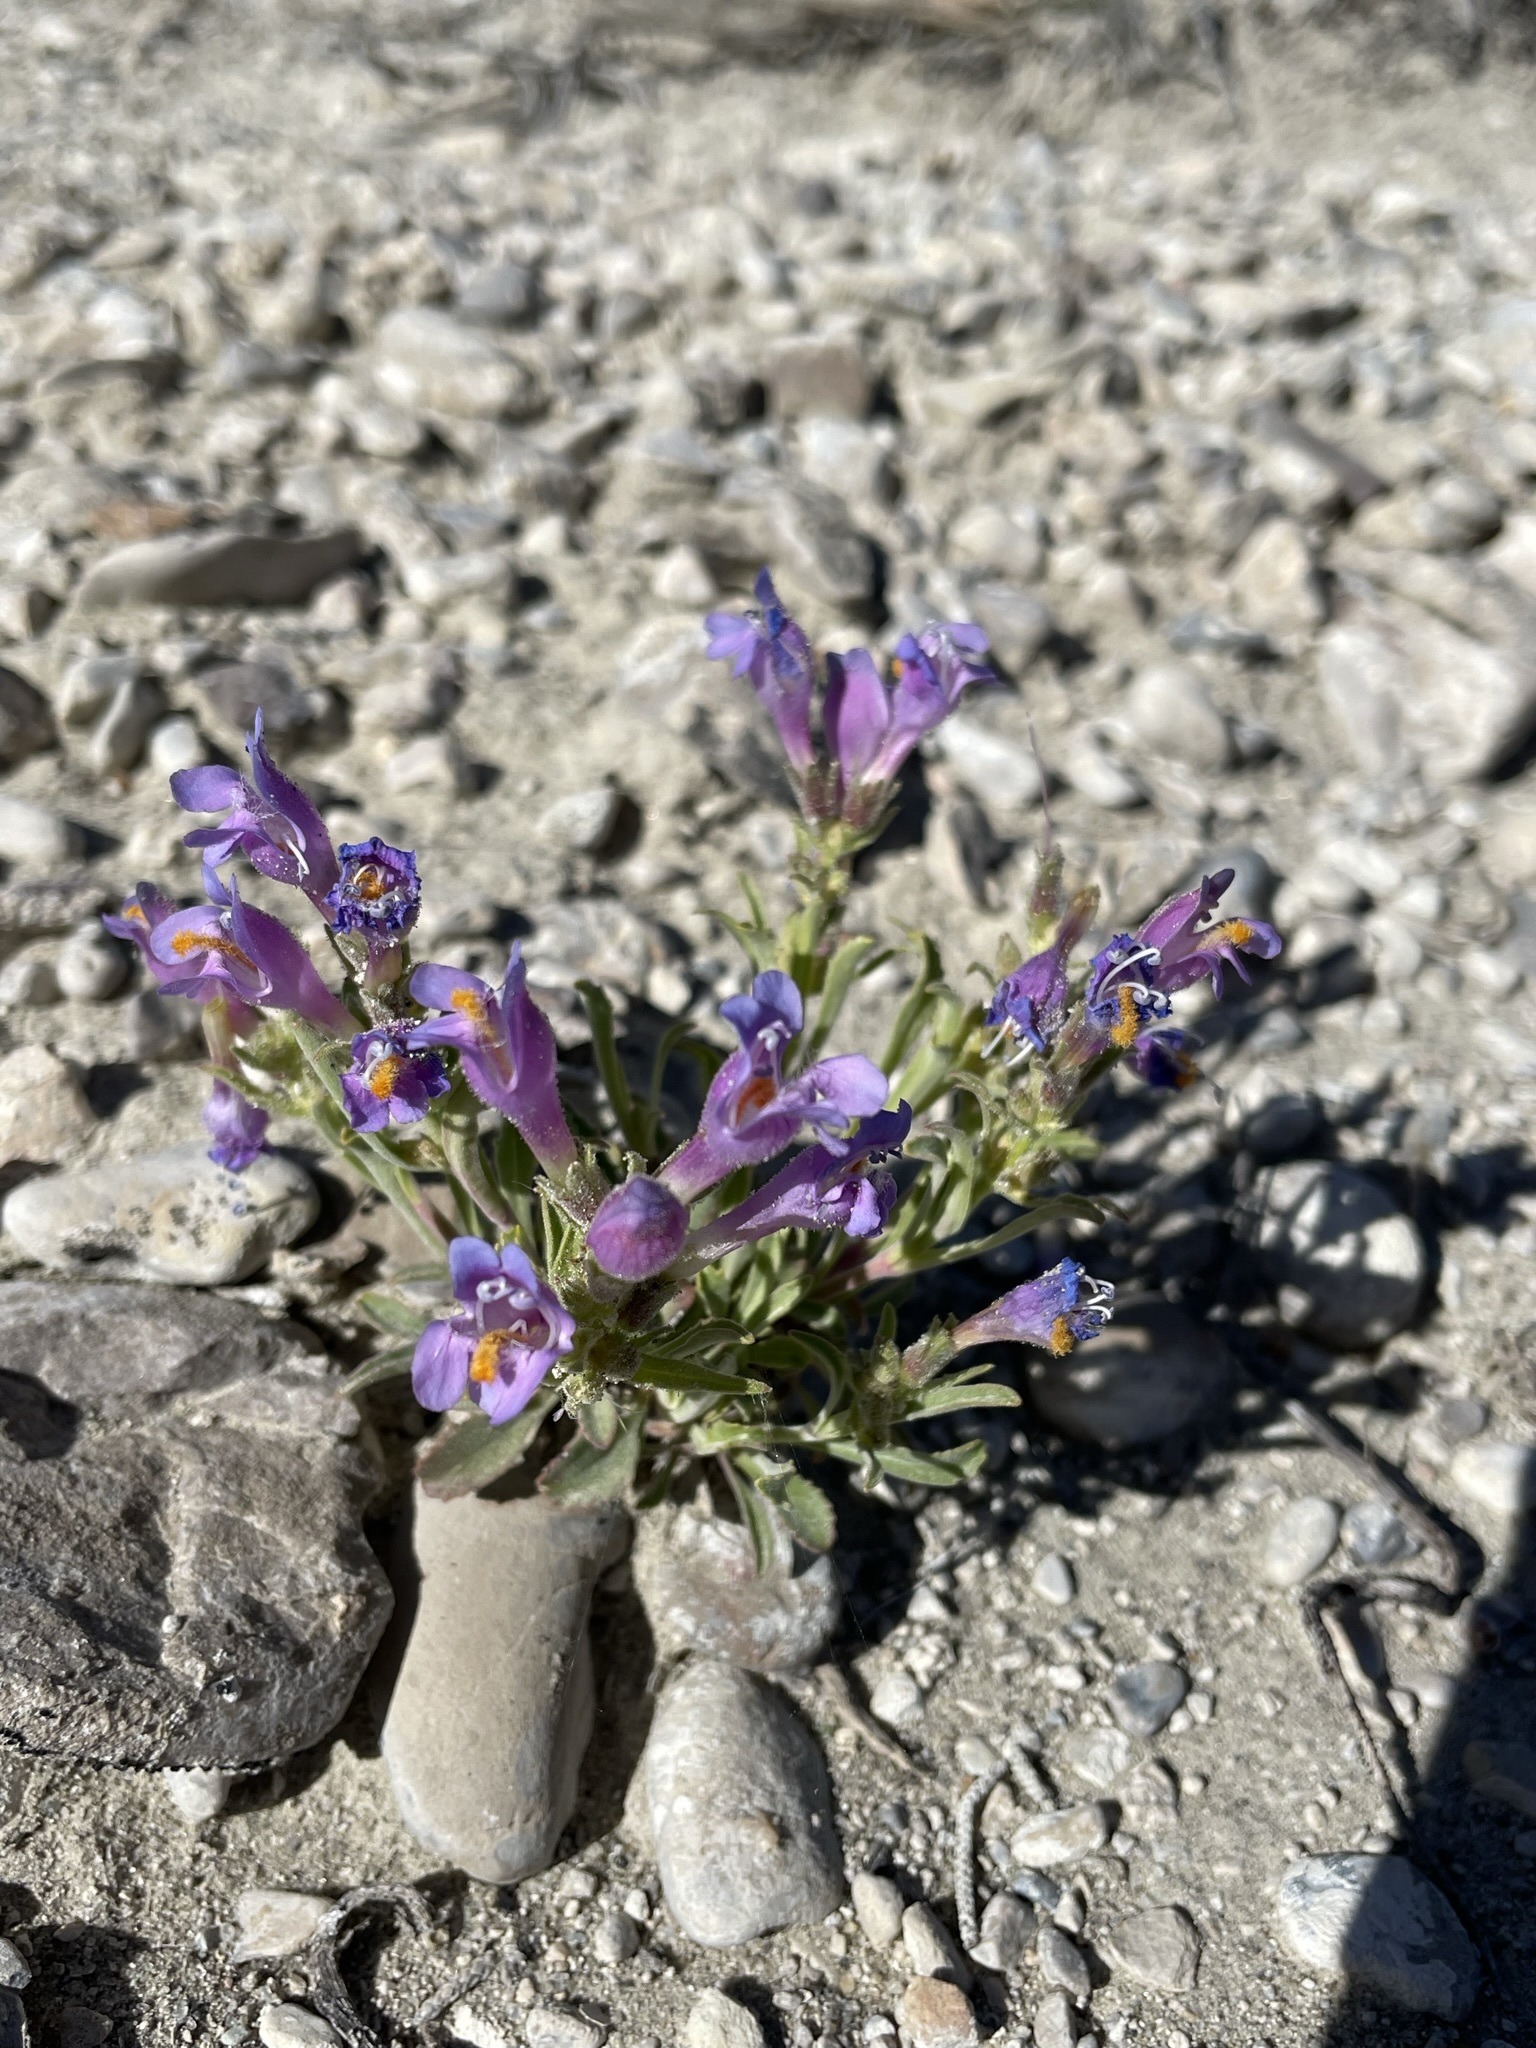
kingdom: Plantae
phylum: Tracheophyta
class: Magnoliopsida
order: Lamiales
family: Plantaginaceae
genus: Penstemon
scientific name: Penstemon janishiae
